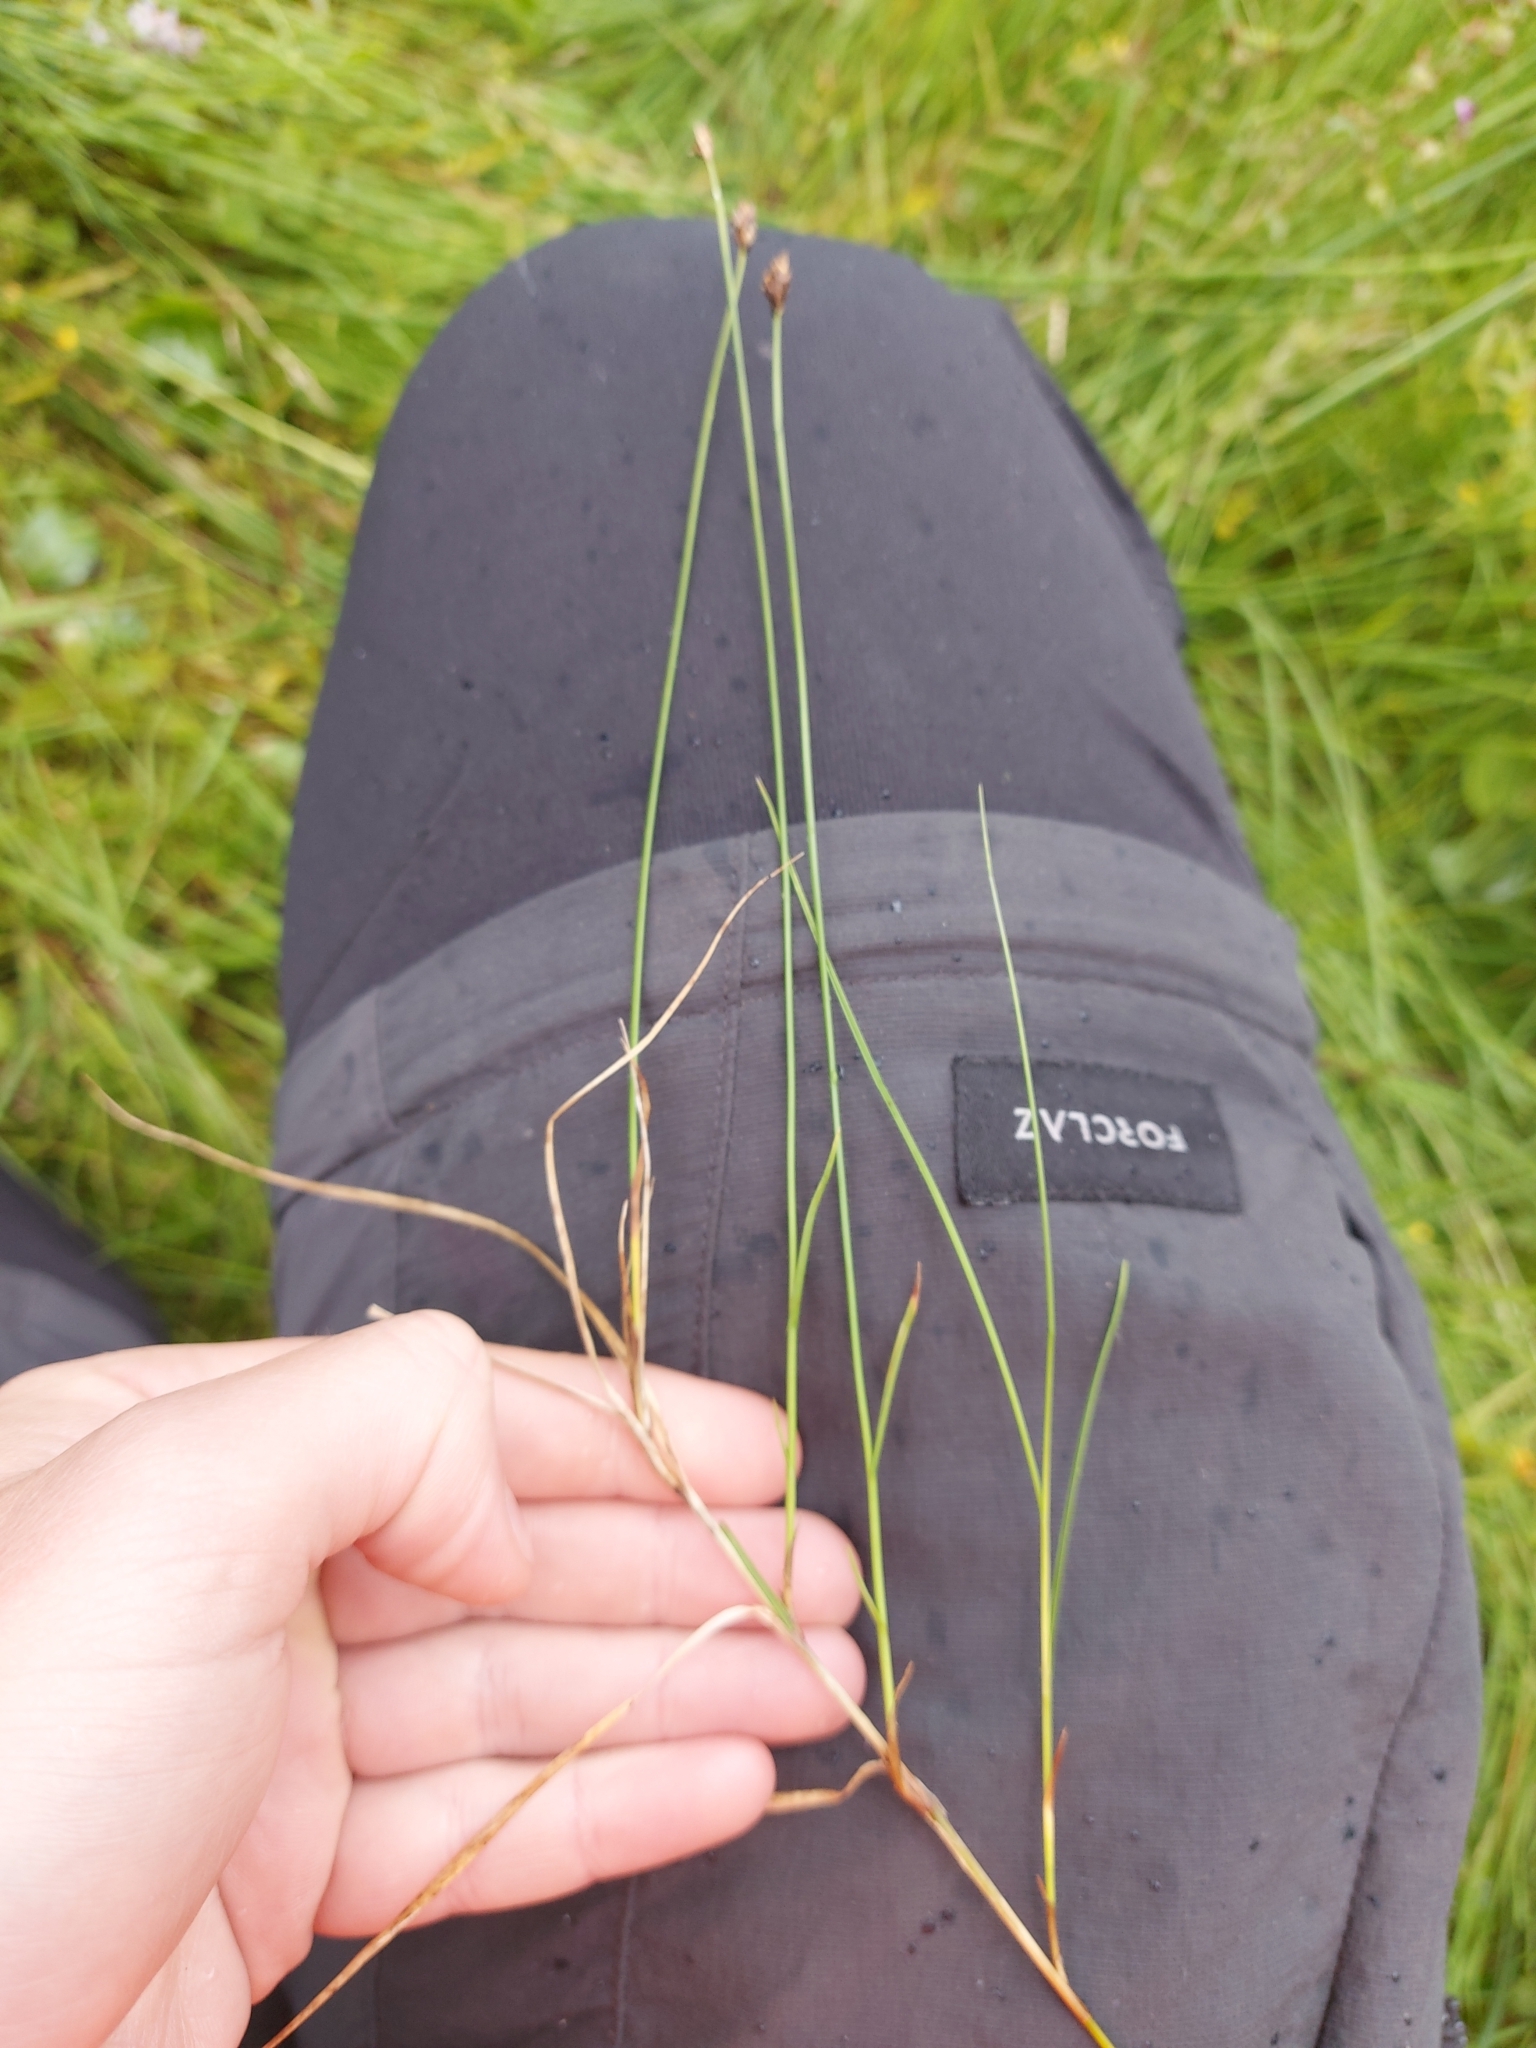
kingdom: Plantae
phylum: Tracheophyta
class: Liliopsida
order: Poales
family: Cyperaceae
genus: Carex
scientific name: Carex chordorrhiza
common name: String sedge
